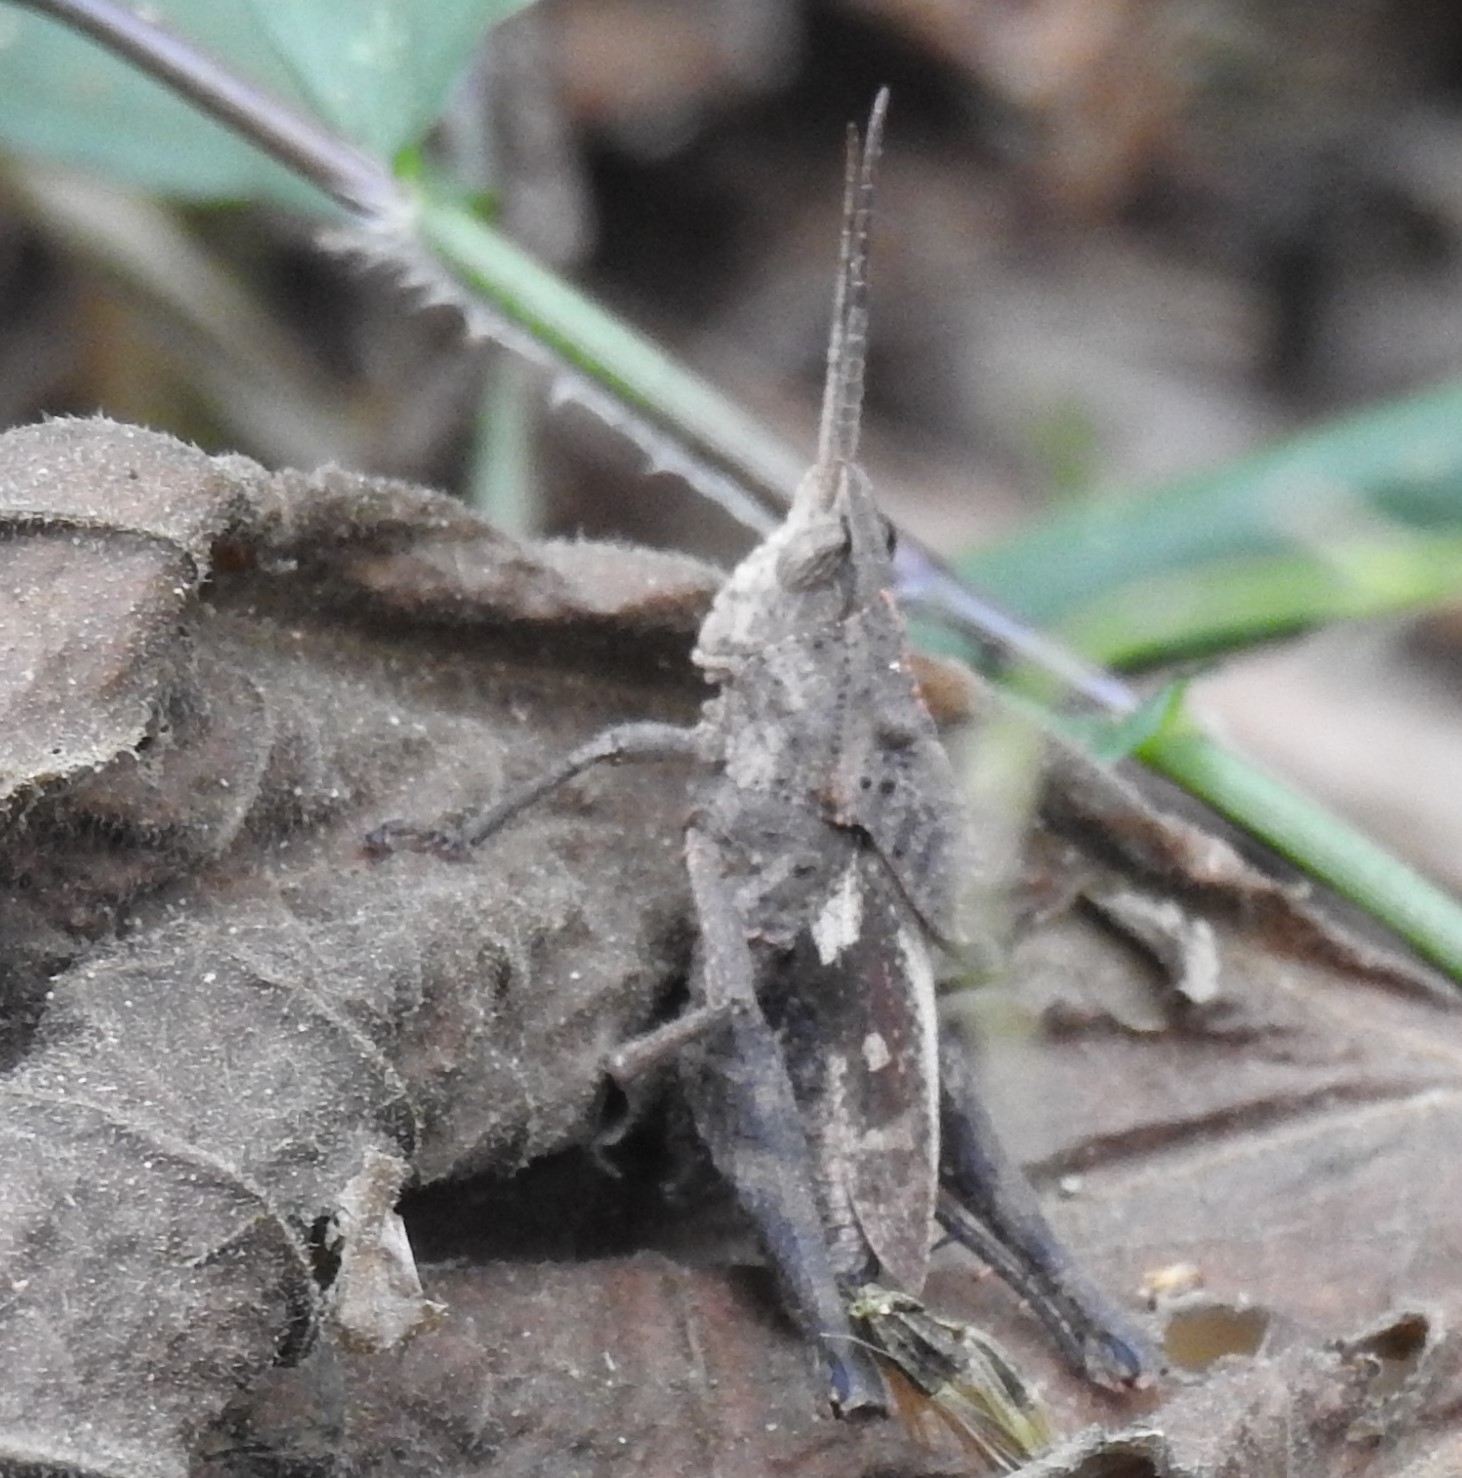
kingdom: Animalia
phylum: Arthropoda
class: Insecta
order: Orthoptera
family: Romaleidae
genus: Colpolopha
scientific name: Colpolopha bruneri
